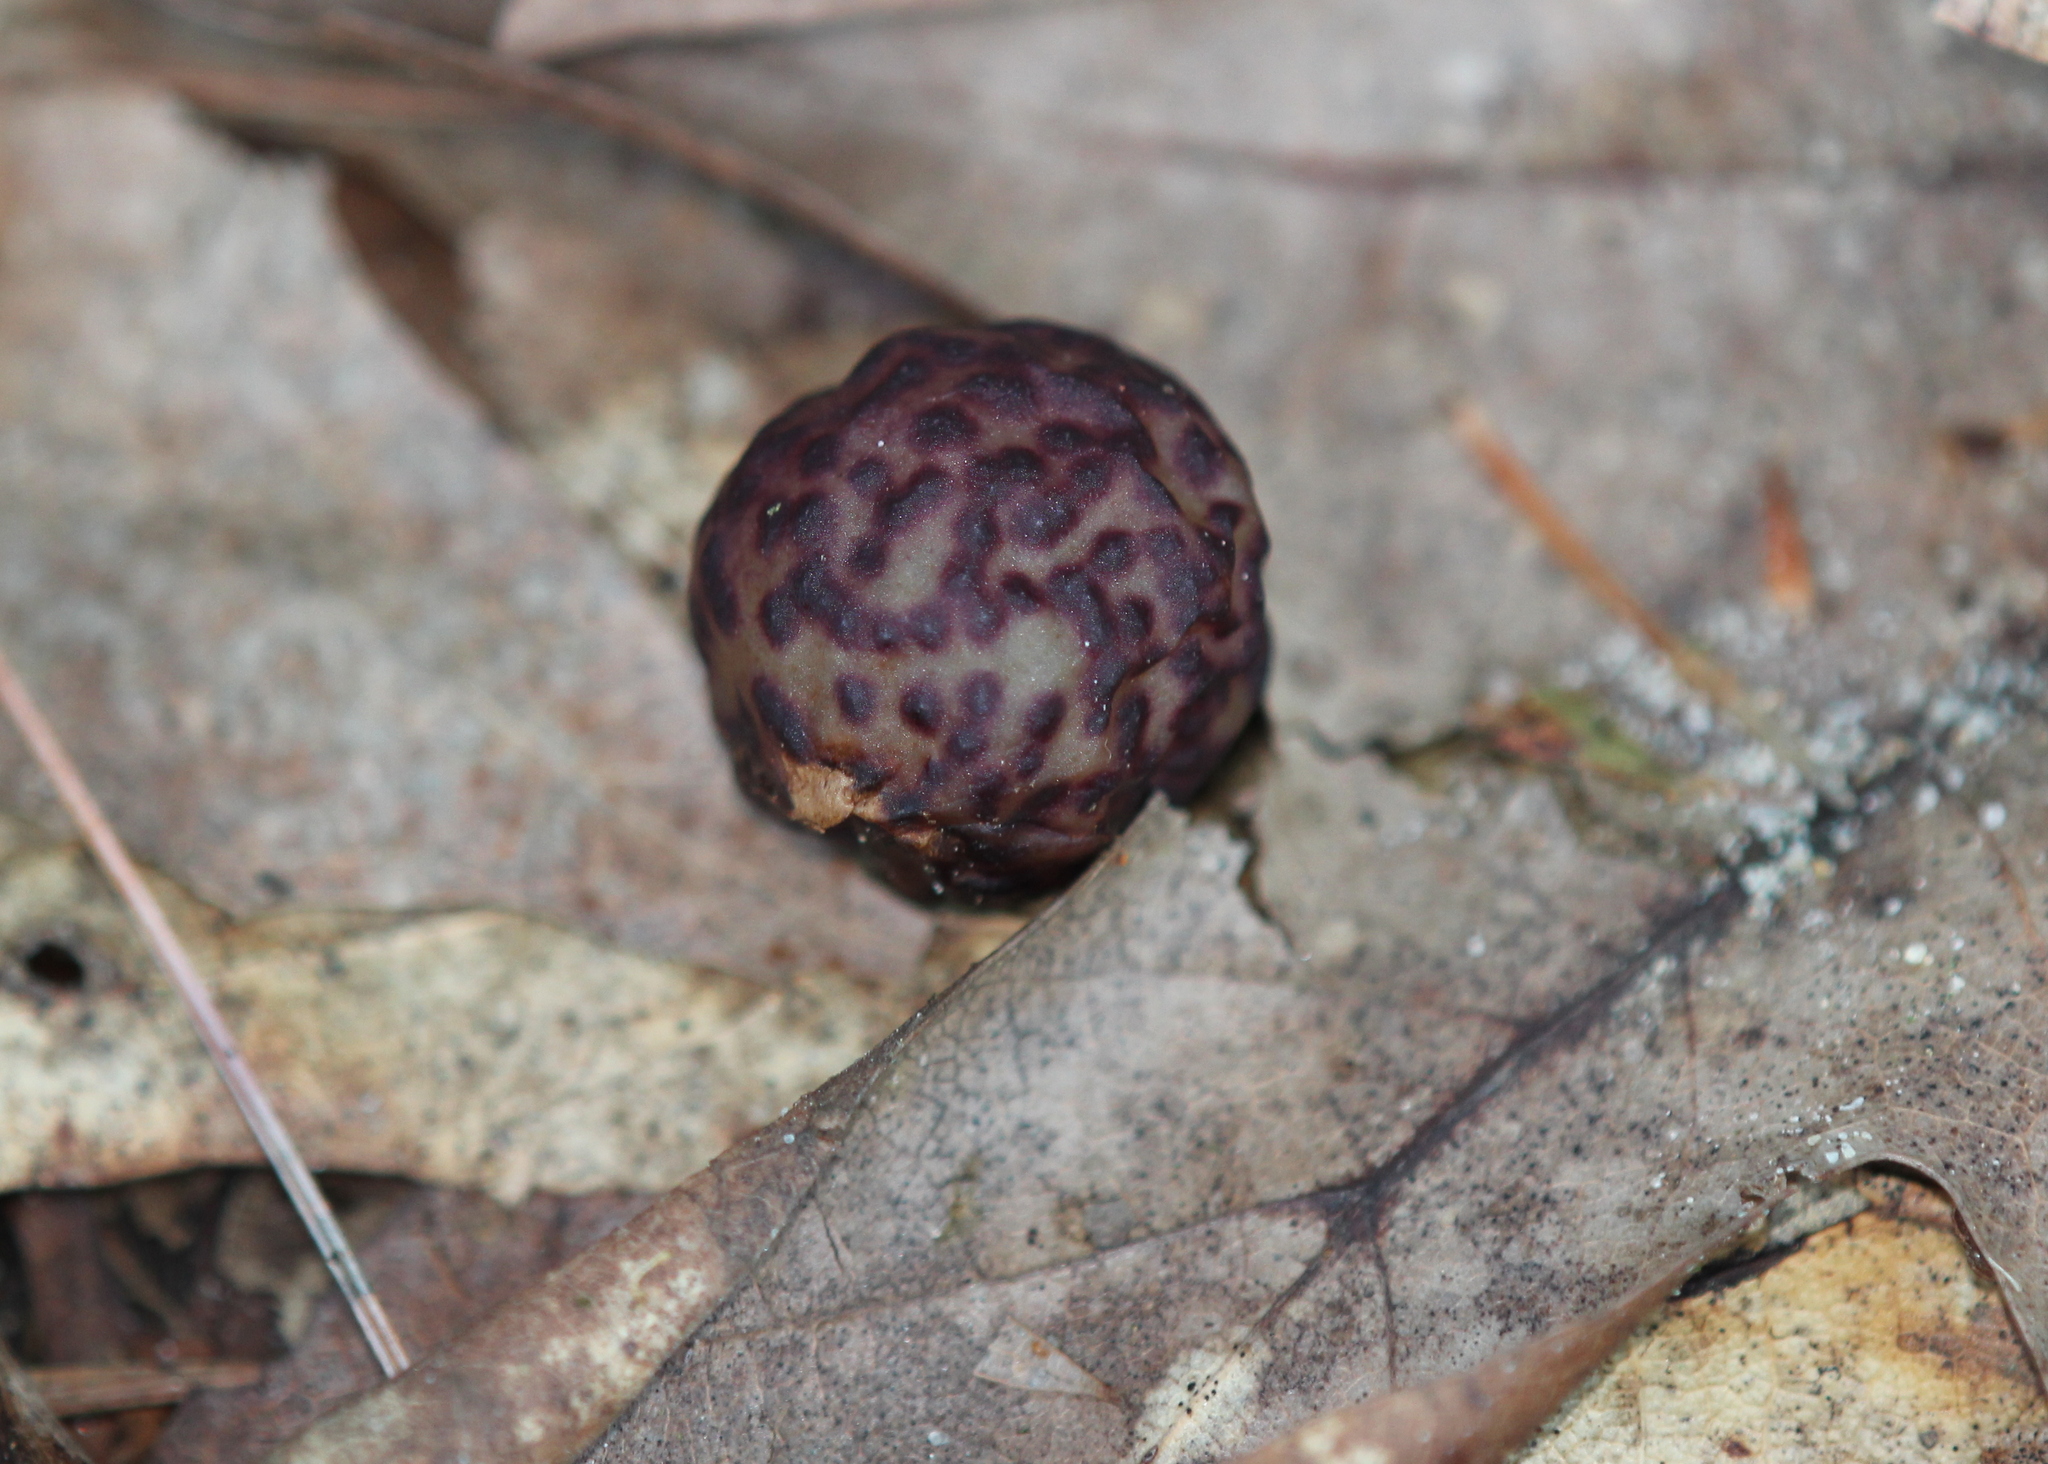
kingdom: Animalia
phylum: Arthropoda
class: Insecta
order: Hymenoptera
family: Cynipidae
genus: Amphibolips
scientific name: Amphibolips
